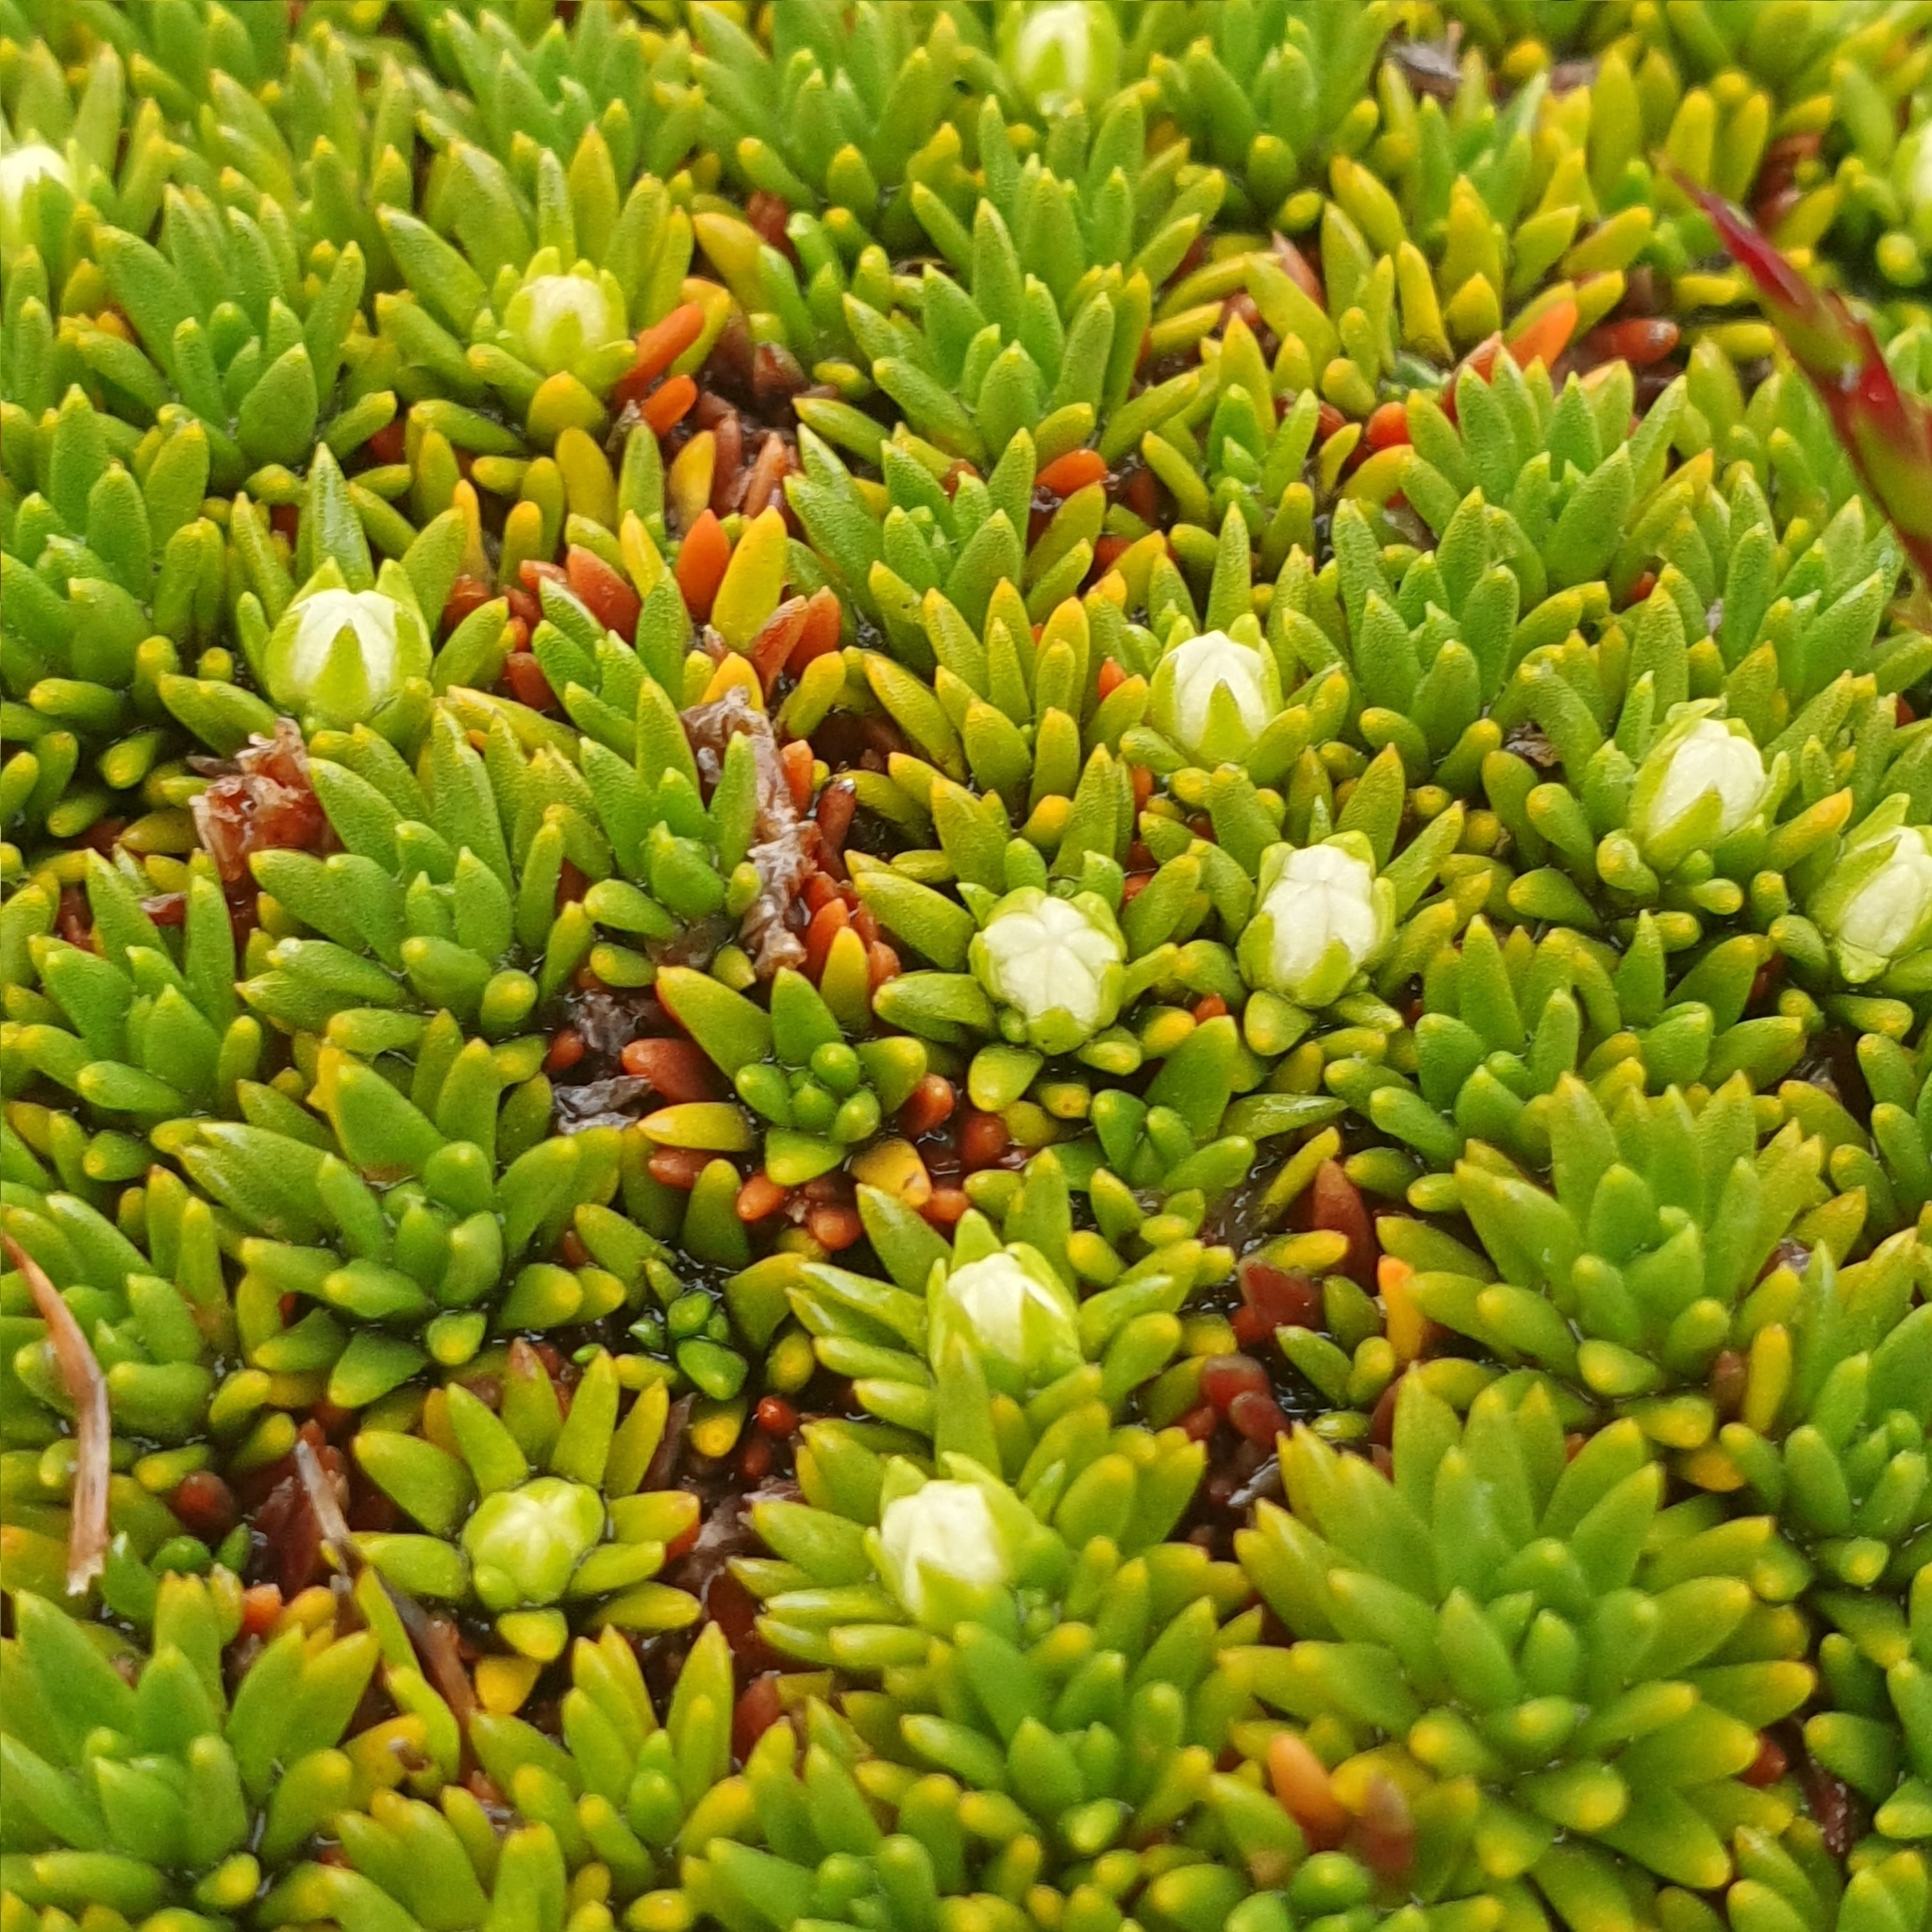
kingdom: Plantae
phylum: Tracheophyta
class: Magnoliopsida
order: Asterales
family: Stylidiaceae
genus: Donatia
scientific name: Donatia novae-zelandiae
